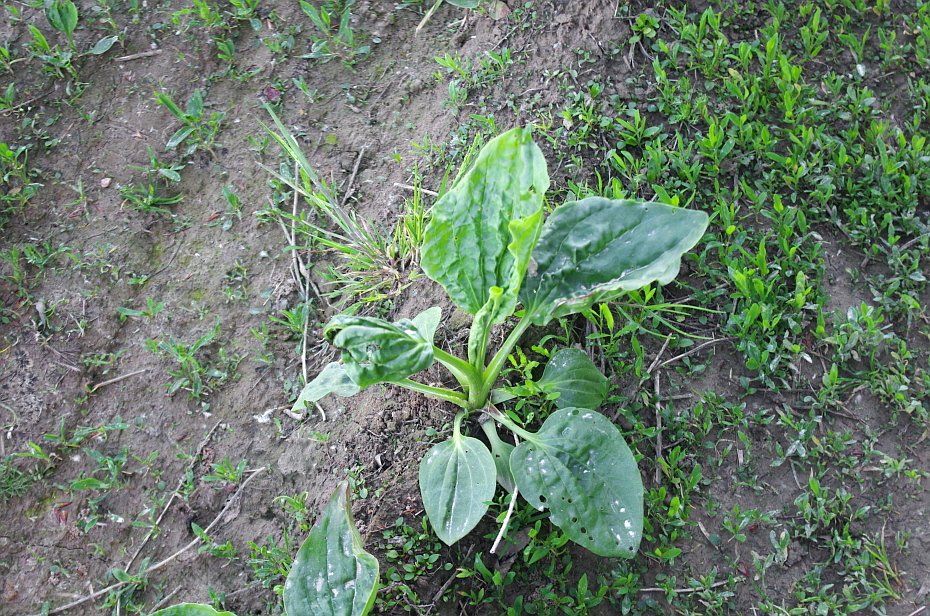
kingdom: Plantae
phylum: Tracheophyta
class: Magnoliopsida
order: Lamiales
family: Plantaginaceae
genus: Plantago
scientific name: Plantago major
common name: Common plantain
